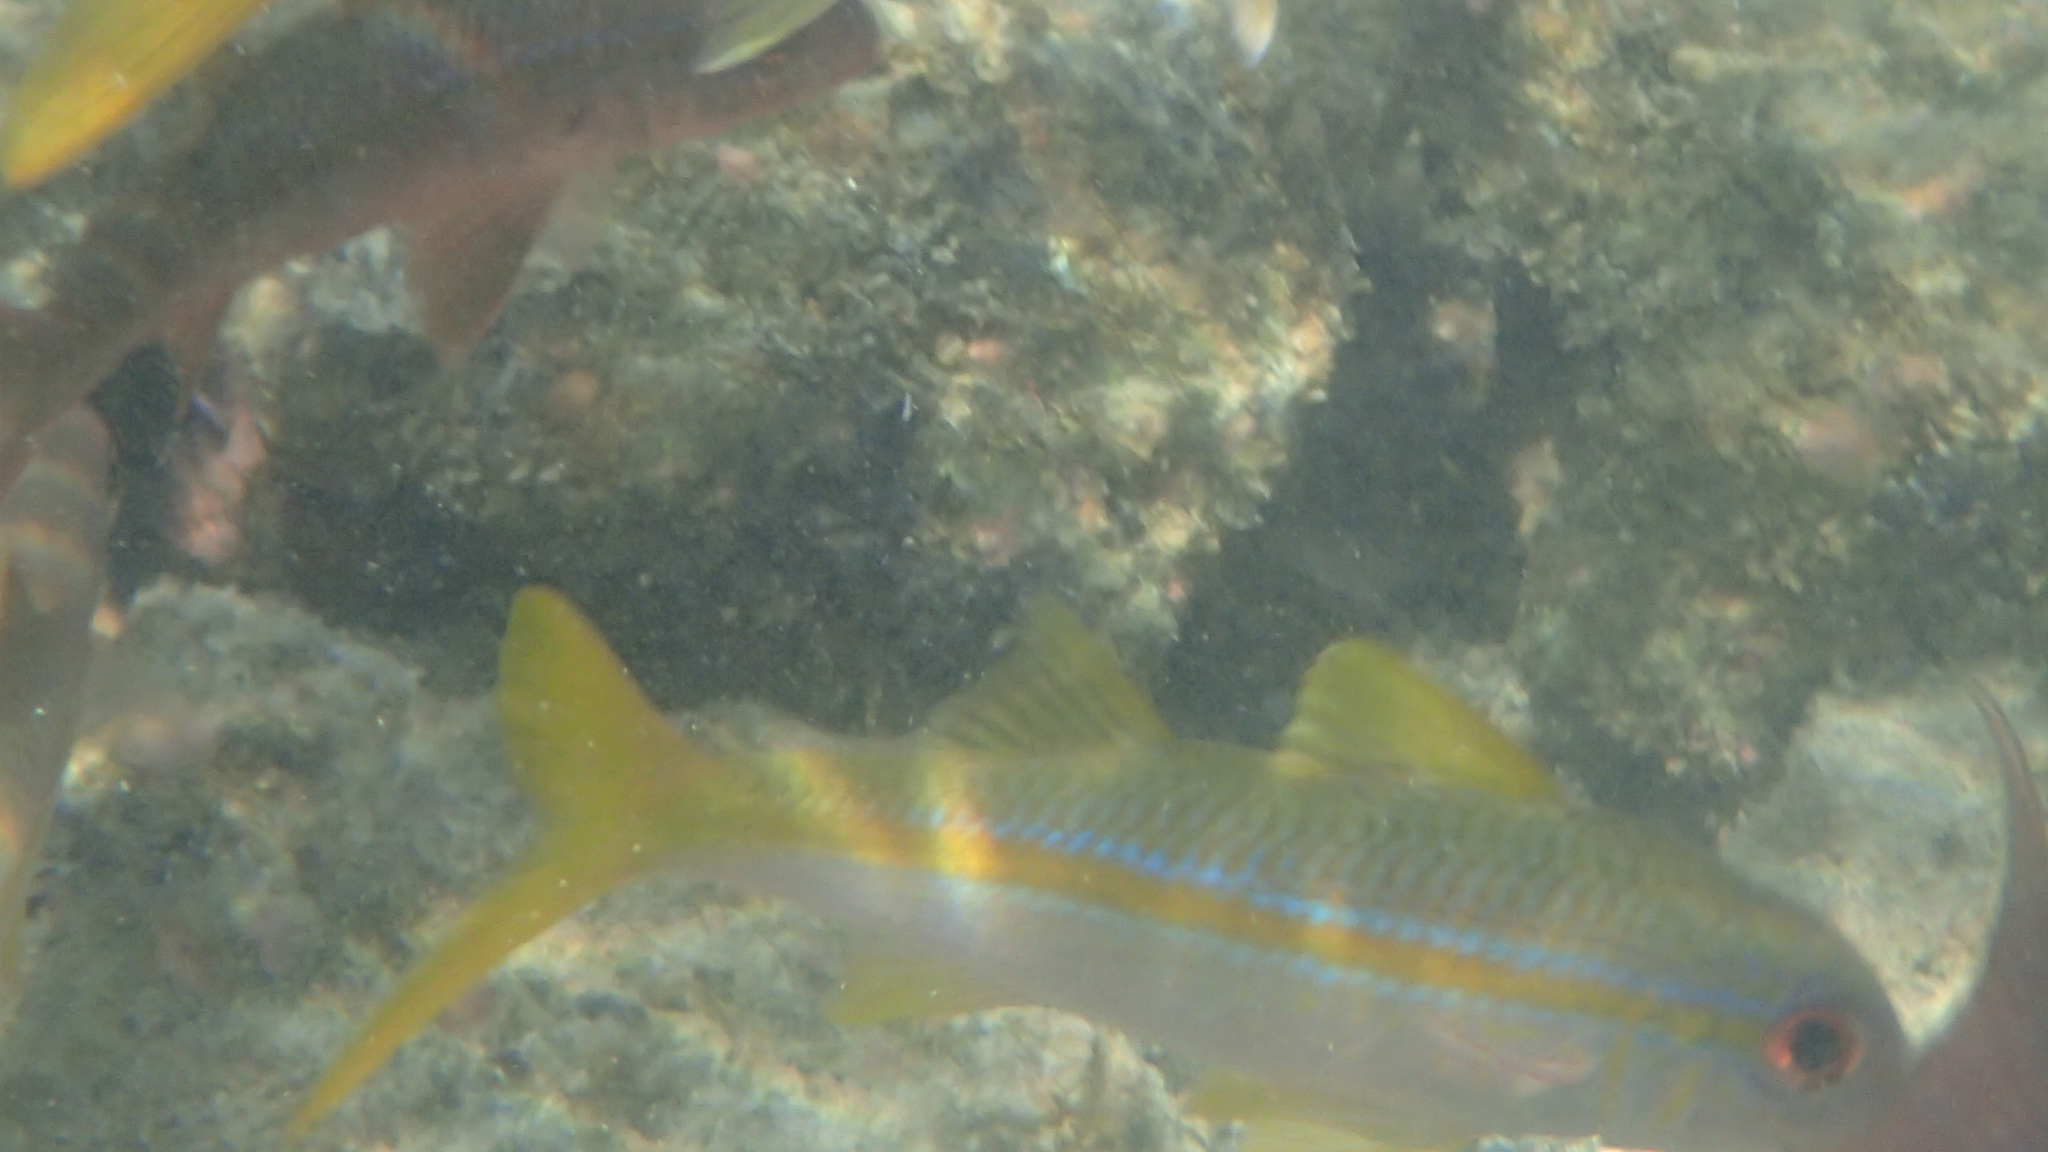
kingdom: Animalia
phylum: Chordata
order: Perciformes
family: Mullidae
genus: Mulloidichthys
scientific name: Mulloidichthys vanicolensis
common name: Yellowfin goatfish
